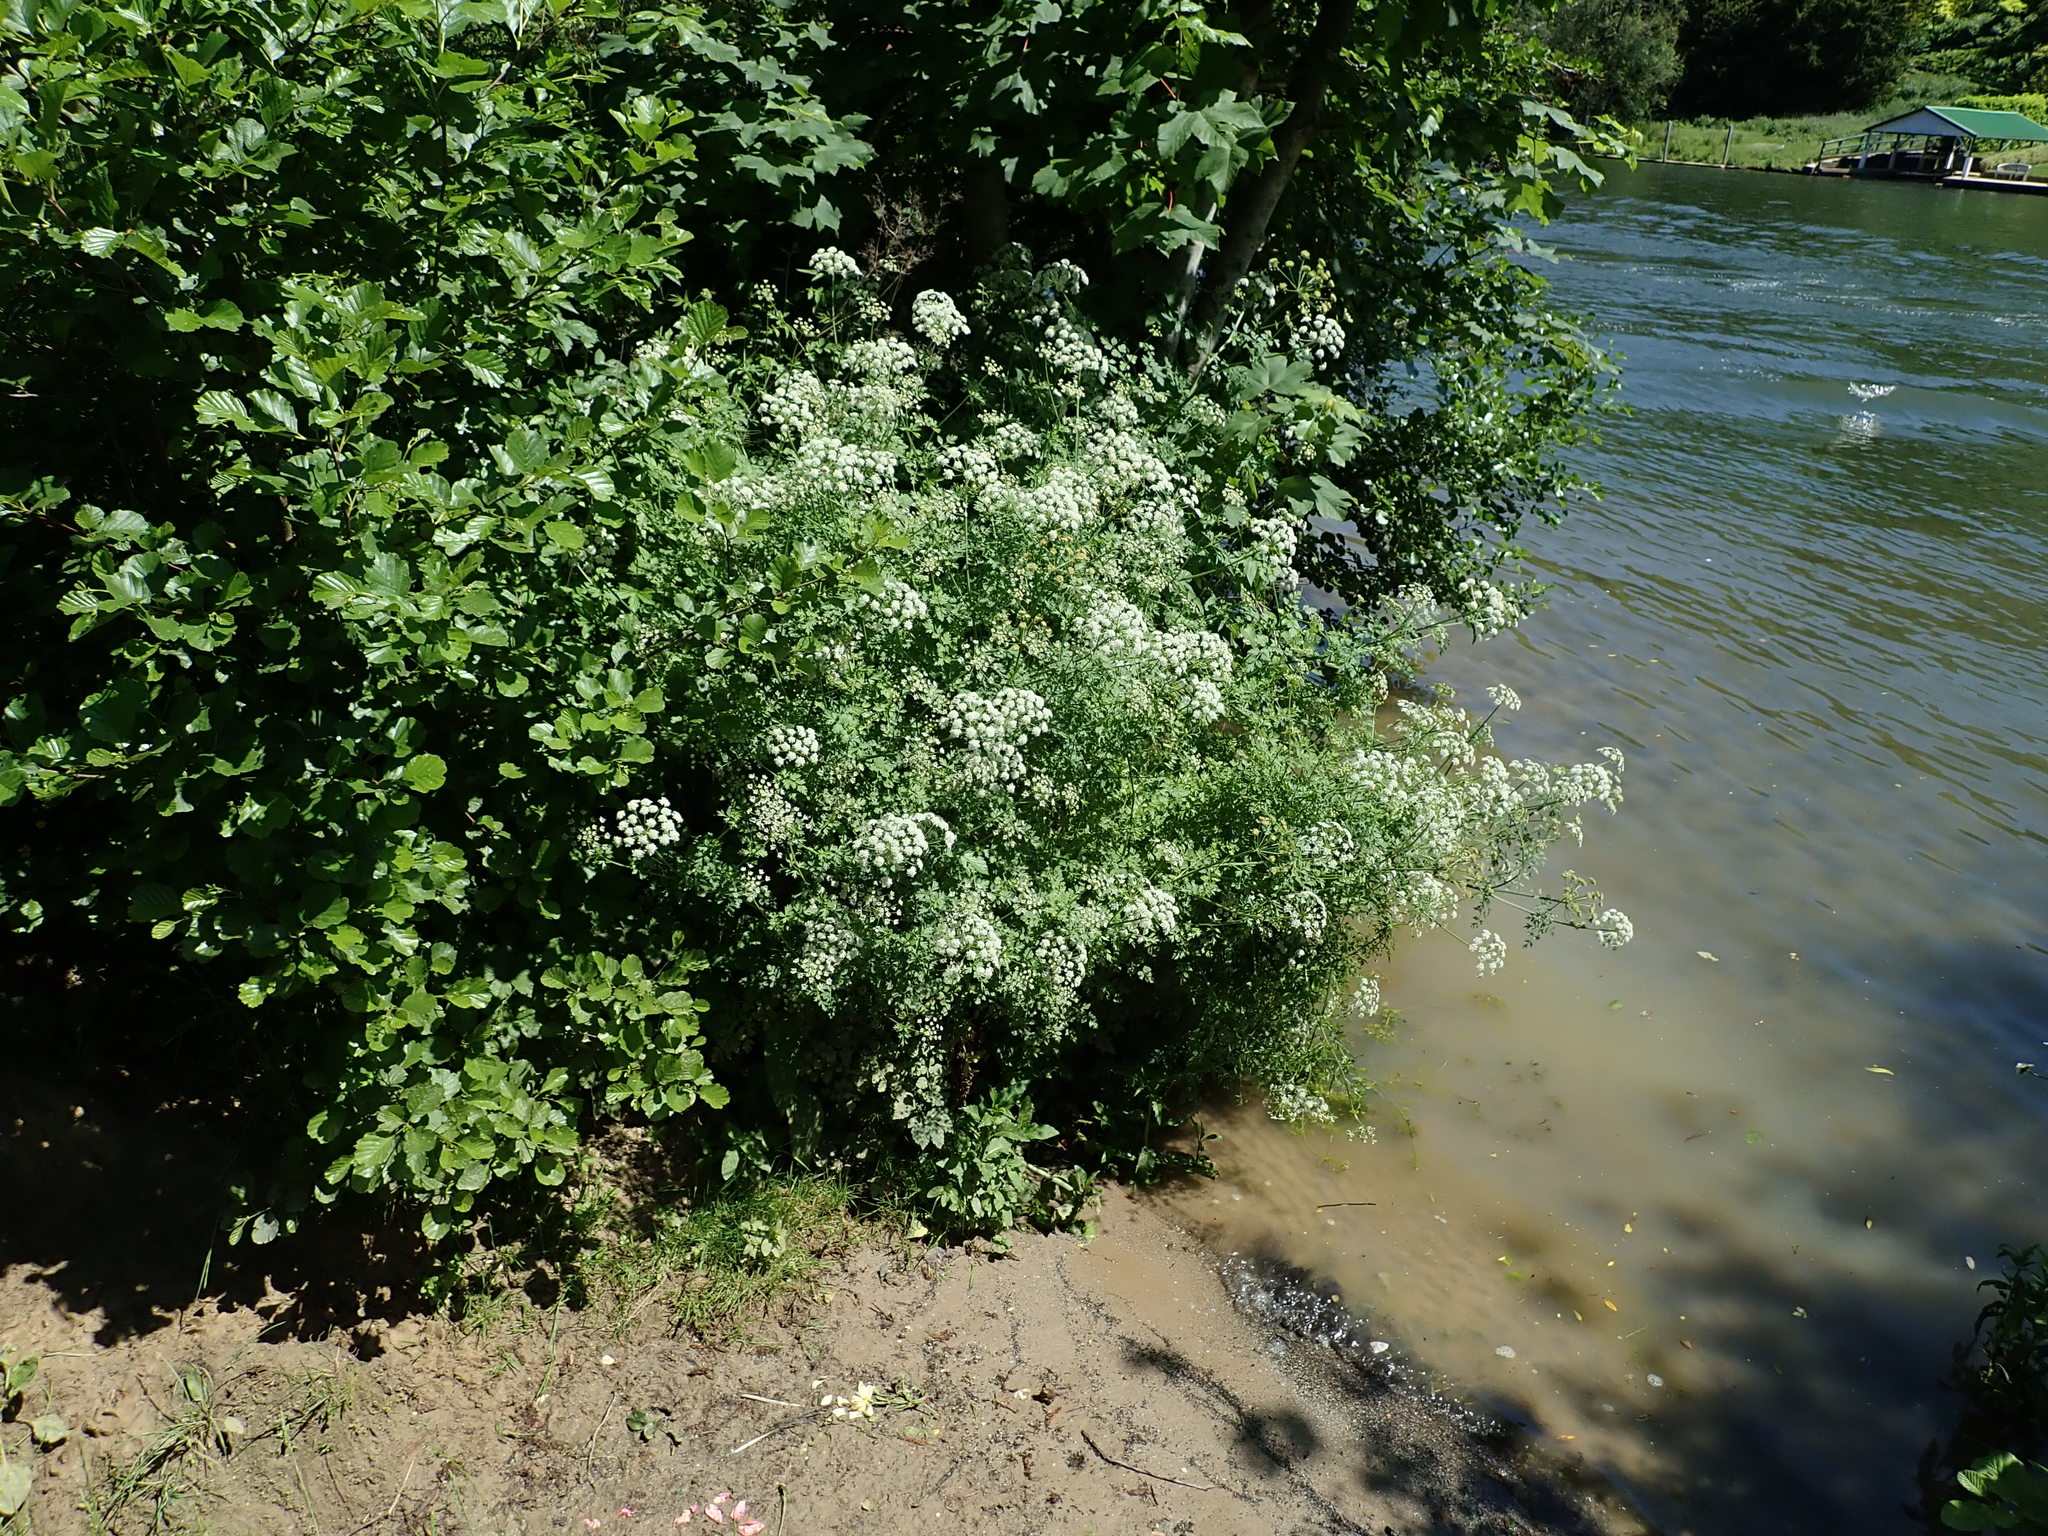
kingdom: Plantae
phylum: Tracheophyta
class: Magnoliopsida
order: Apiales
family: Apiaceae
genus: Oenanthe
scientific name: Oenanthe crocata
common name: Hemlock water-dropwort
